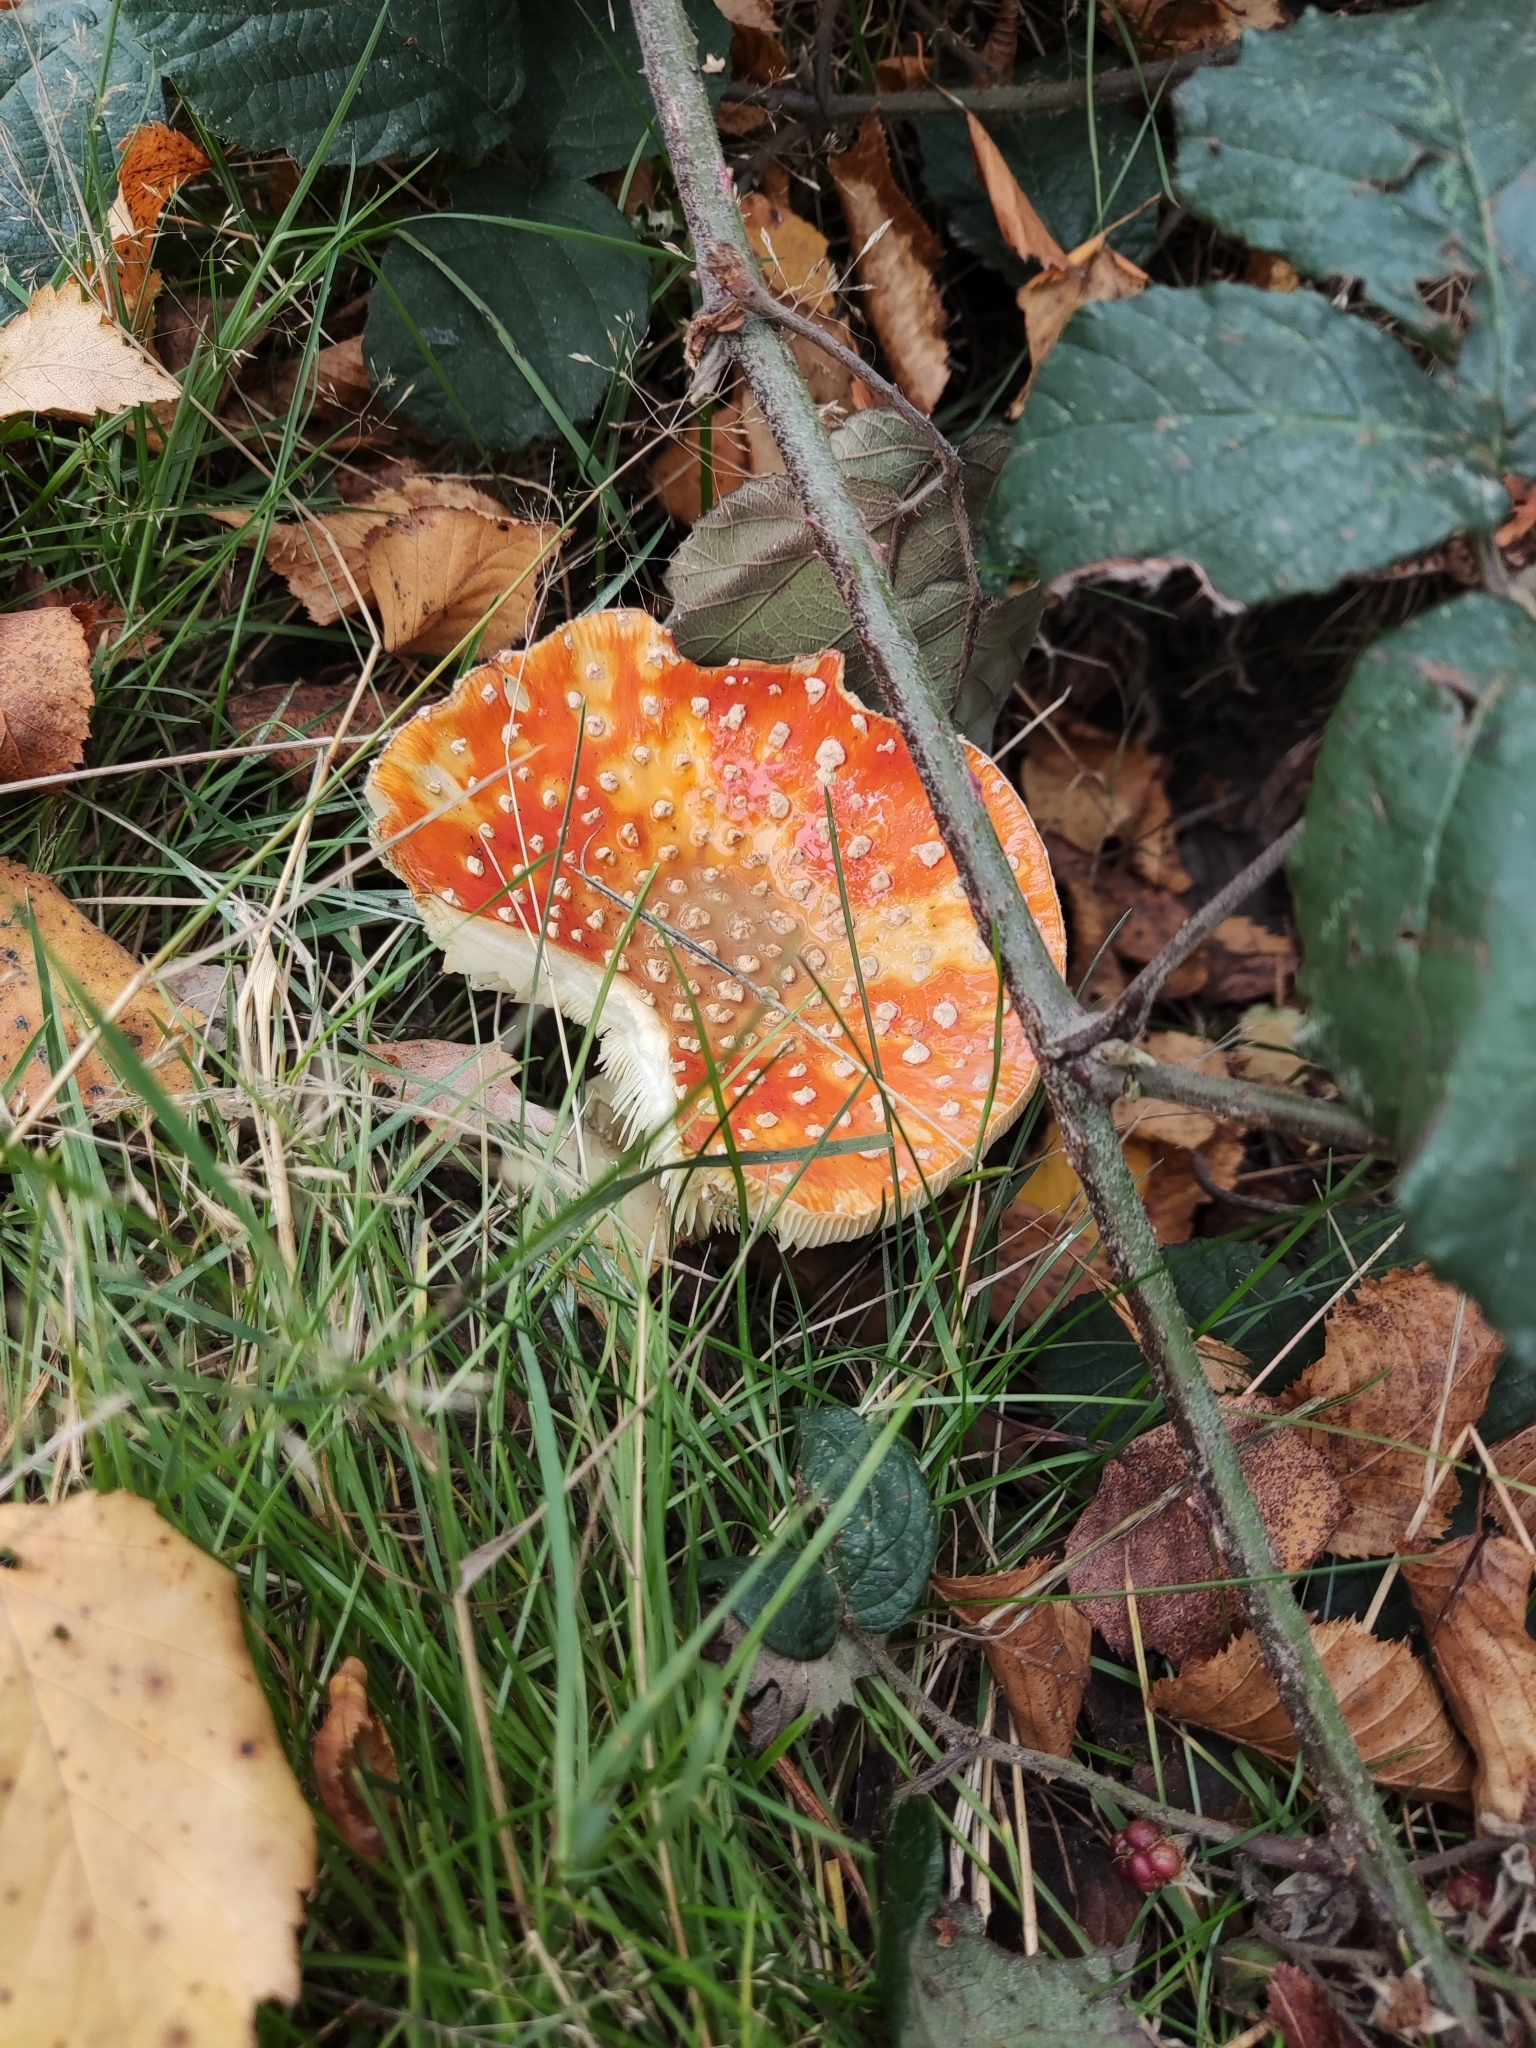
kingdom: Fungi
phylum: Basidiomycota
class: Agaricomycetes
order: Agaricales
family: Amanitaceae
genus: Amanita
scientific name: Amanita muscaria
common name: Fly agaric
